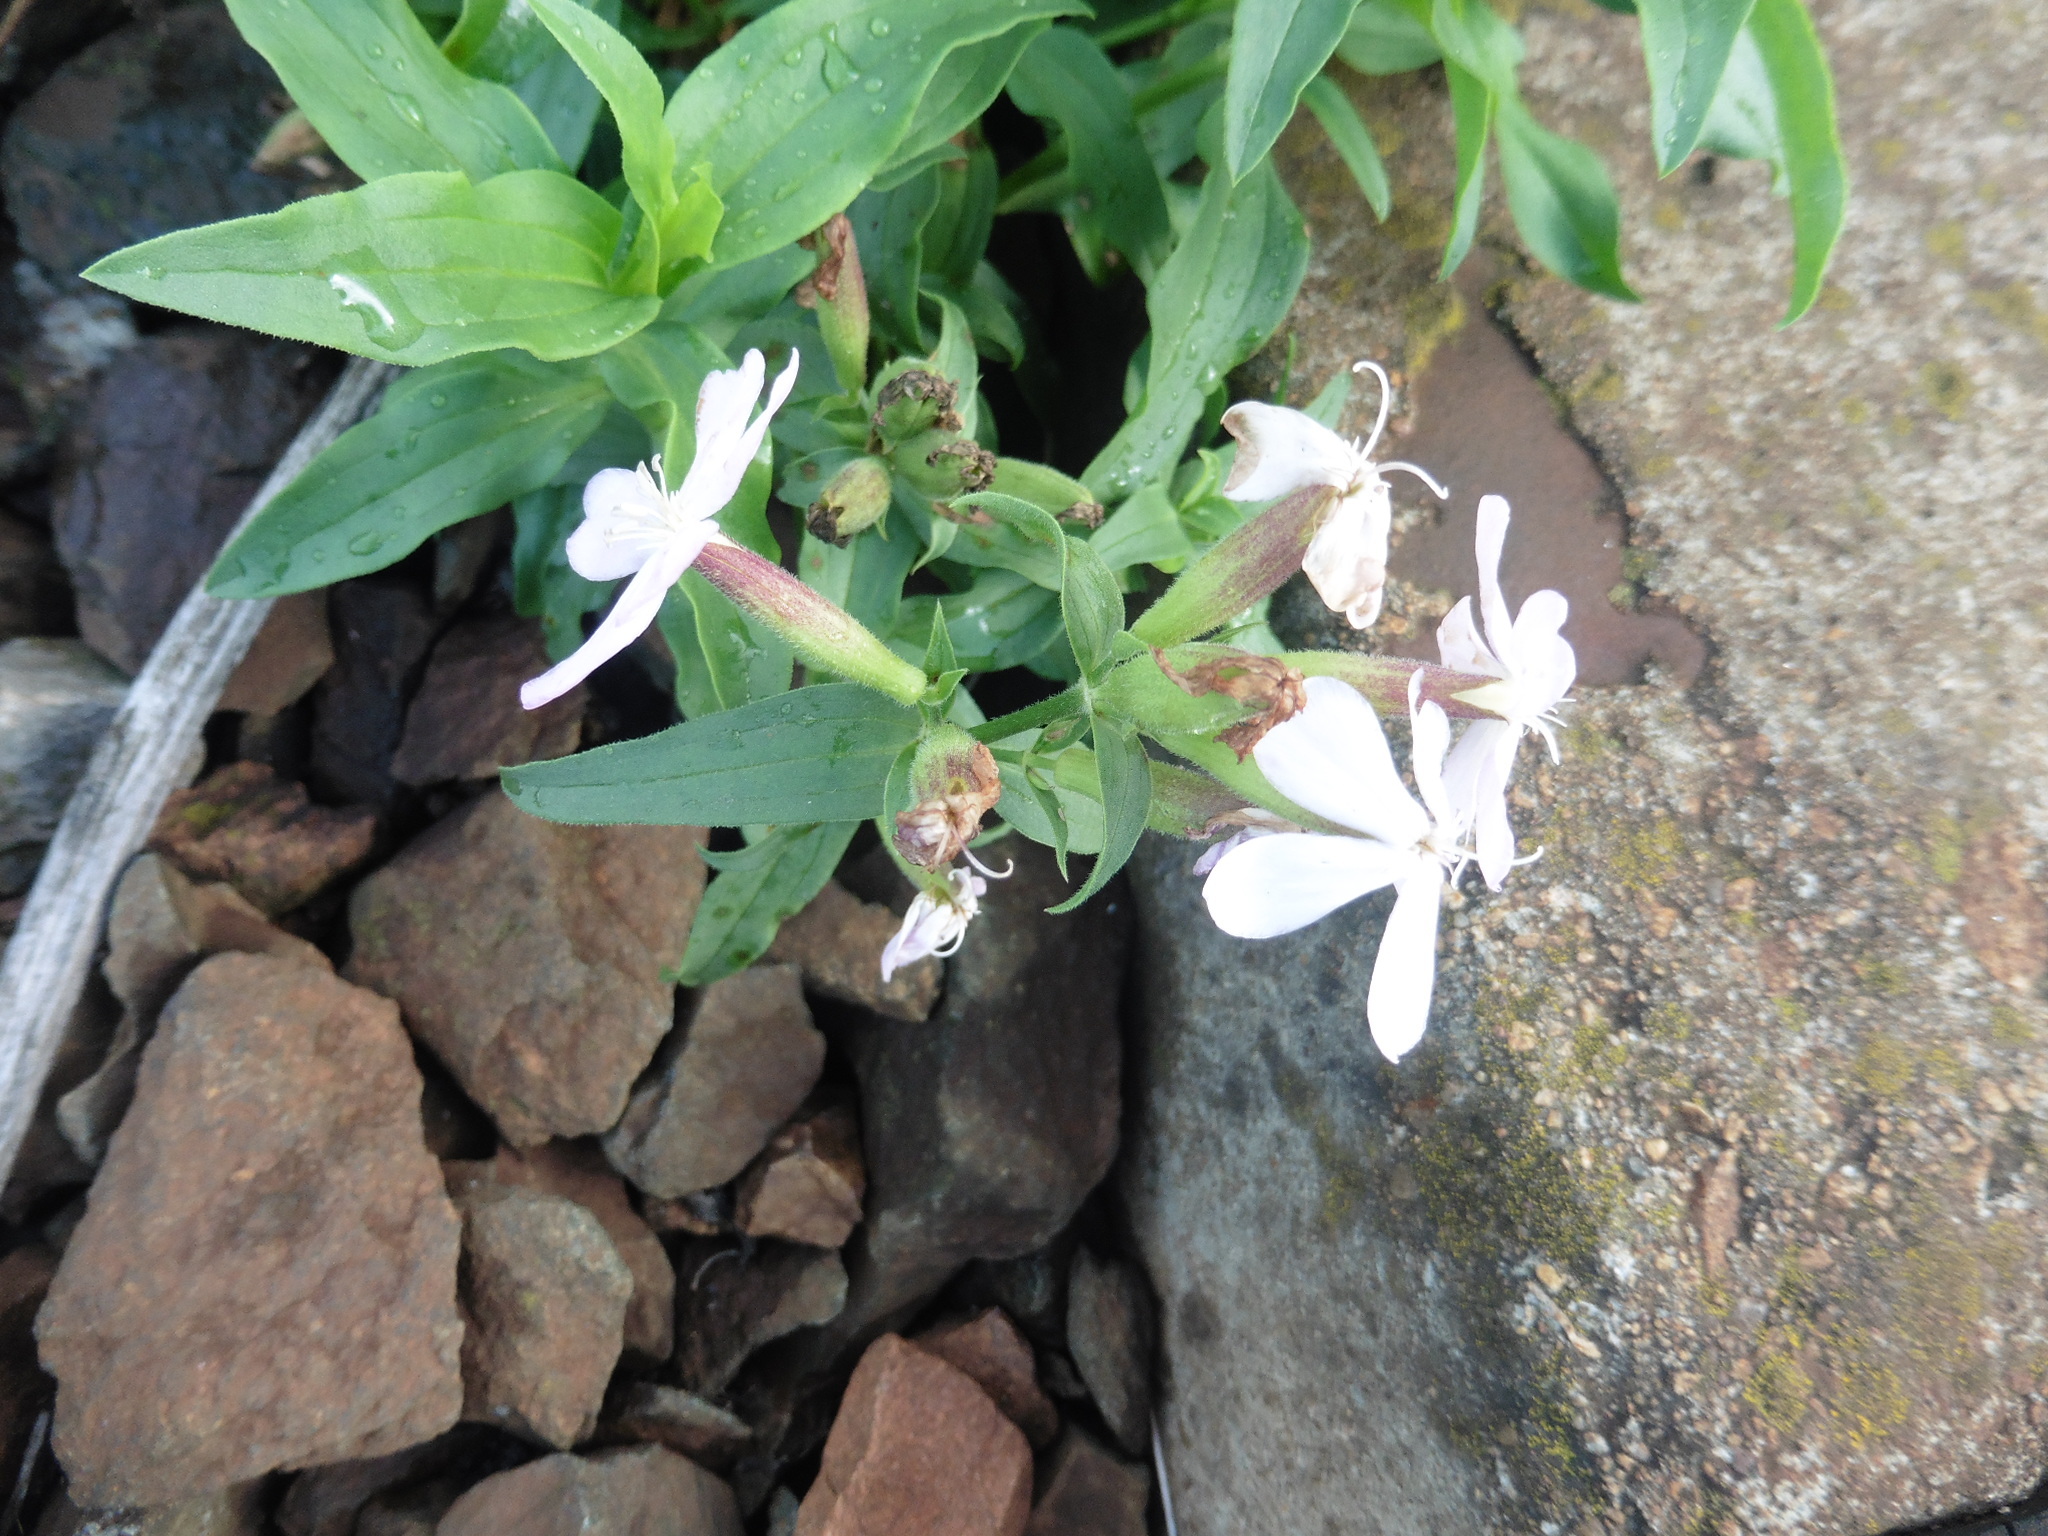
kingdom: Plantae
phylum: Tracheophyta
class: Magnoliopsida
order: Caryophyllales
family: Caryophyllaceae
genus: Saponaria
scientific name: Saponaria officinalis
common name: Soapwort
